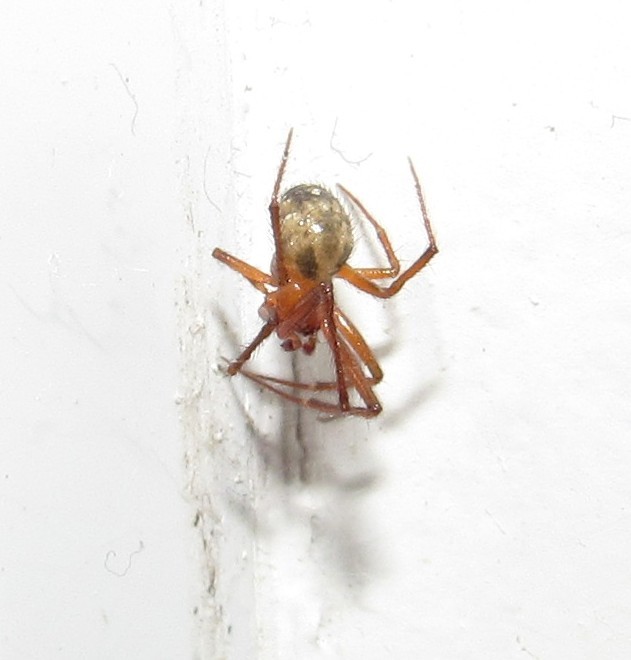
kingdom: Animalia
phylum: Arthropoda
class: Arachnida
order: Araneae
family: Theridiidae
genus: Nesticodes
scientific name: Nesticodes rufipes
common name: Cobweb spiders
